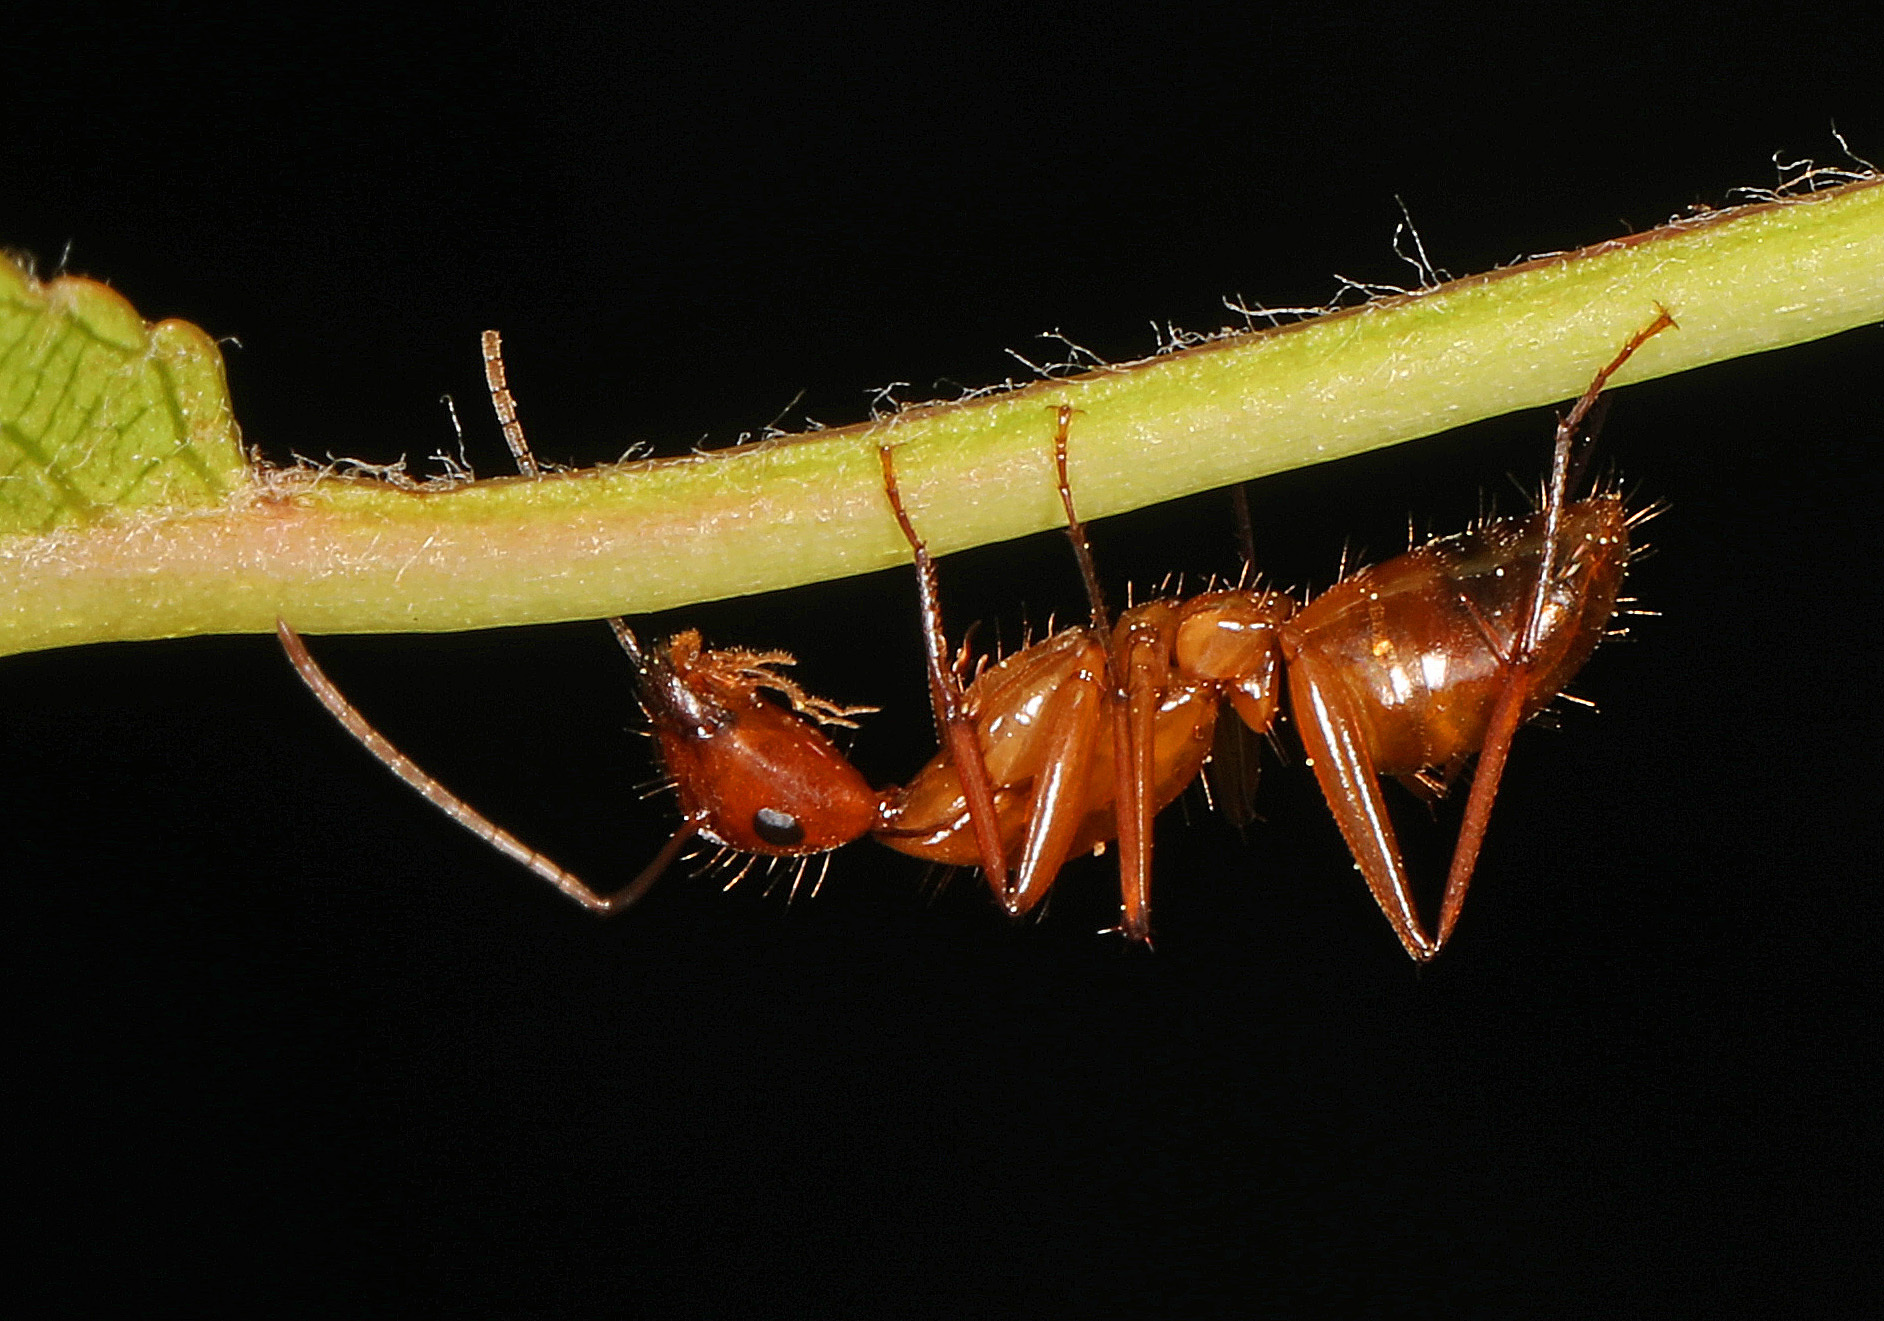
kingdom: Animalia
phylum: Arthropoda
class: Insecta
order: Hymenoptera
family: Formicidae
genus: Camponotus
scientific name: Camponotus castaneus
